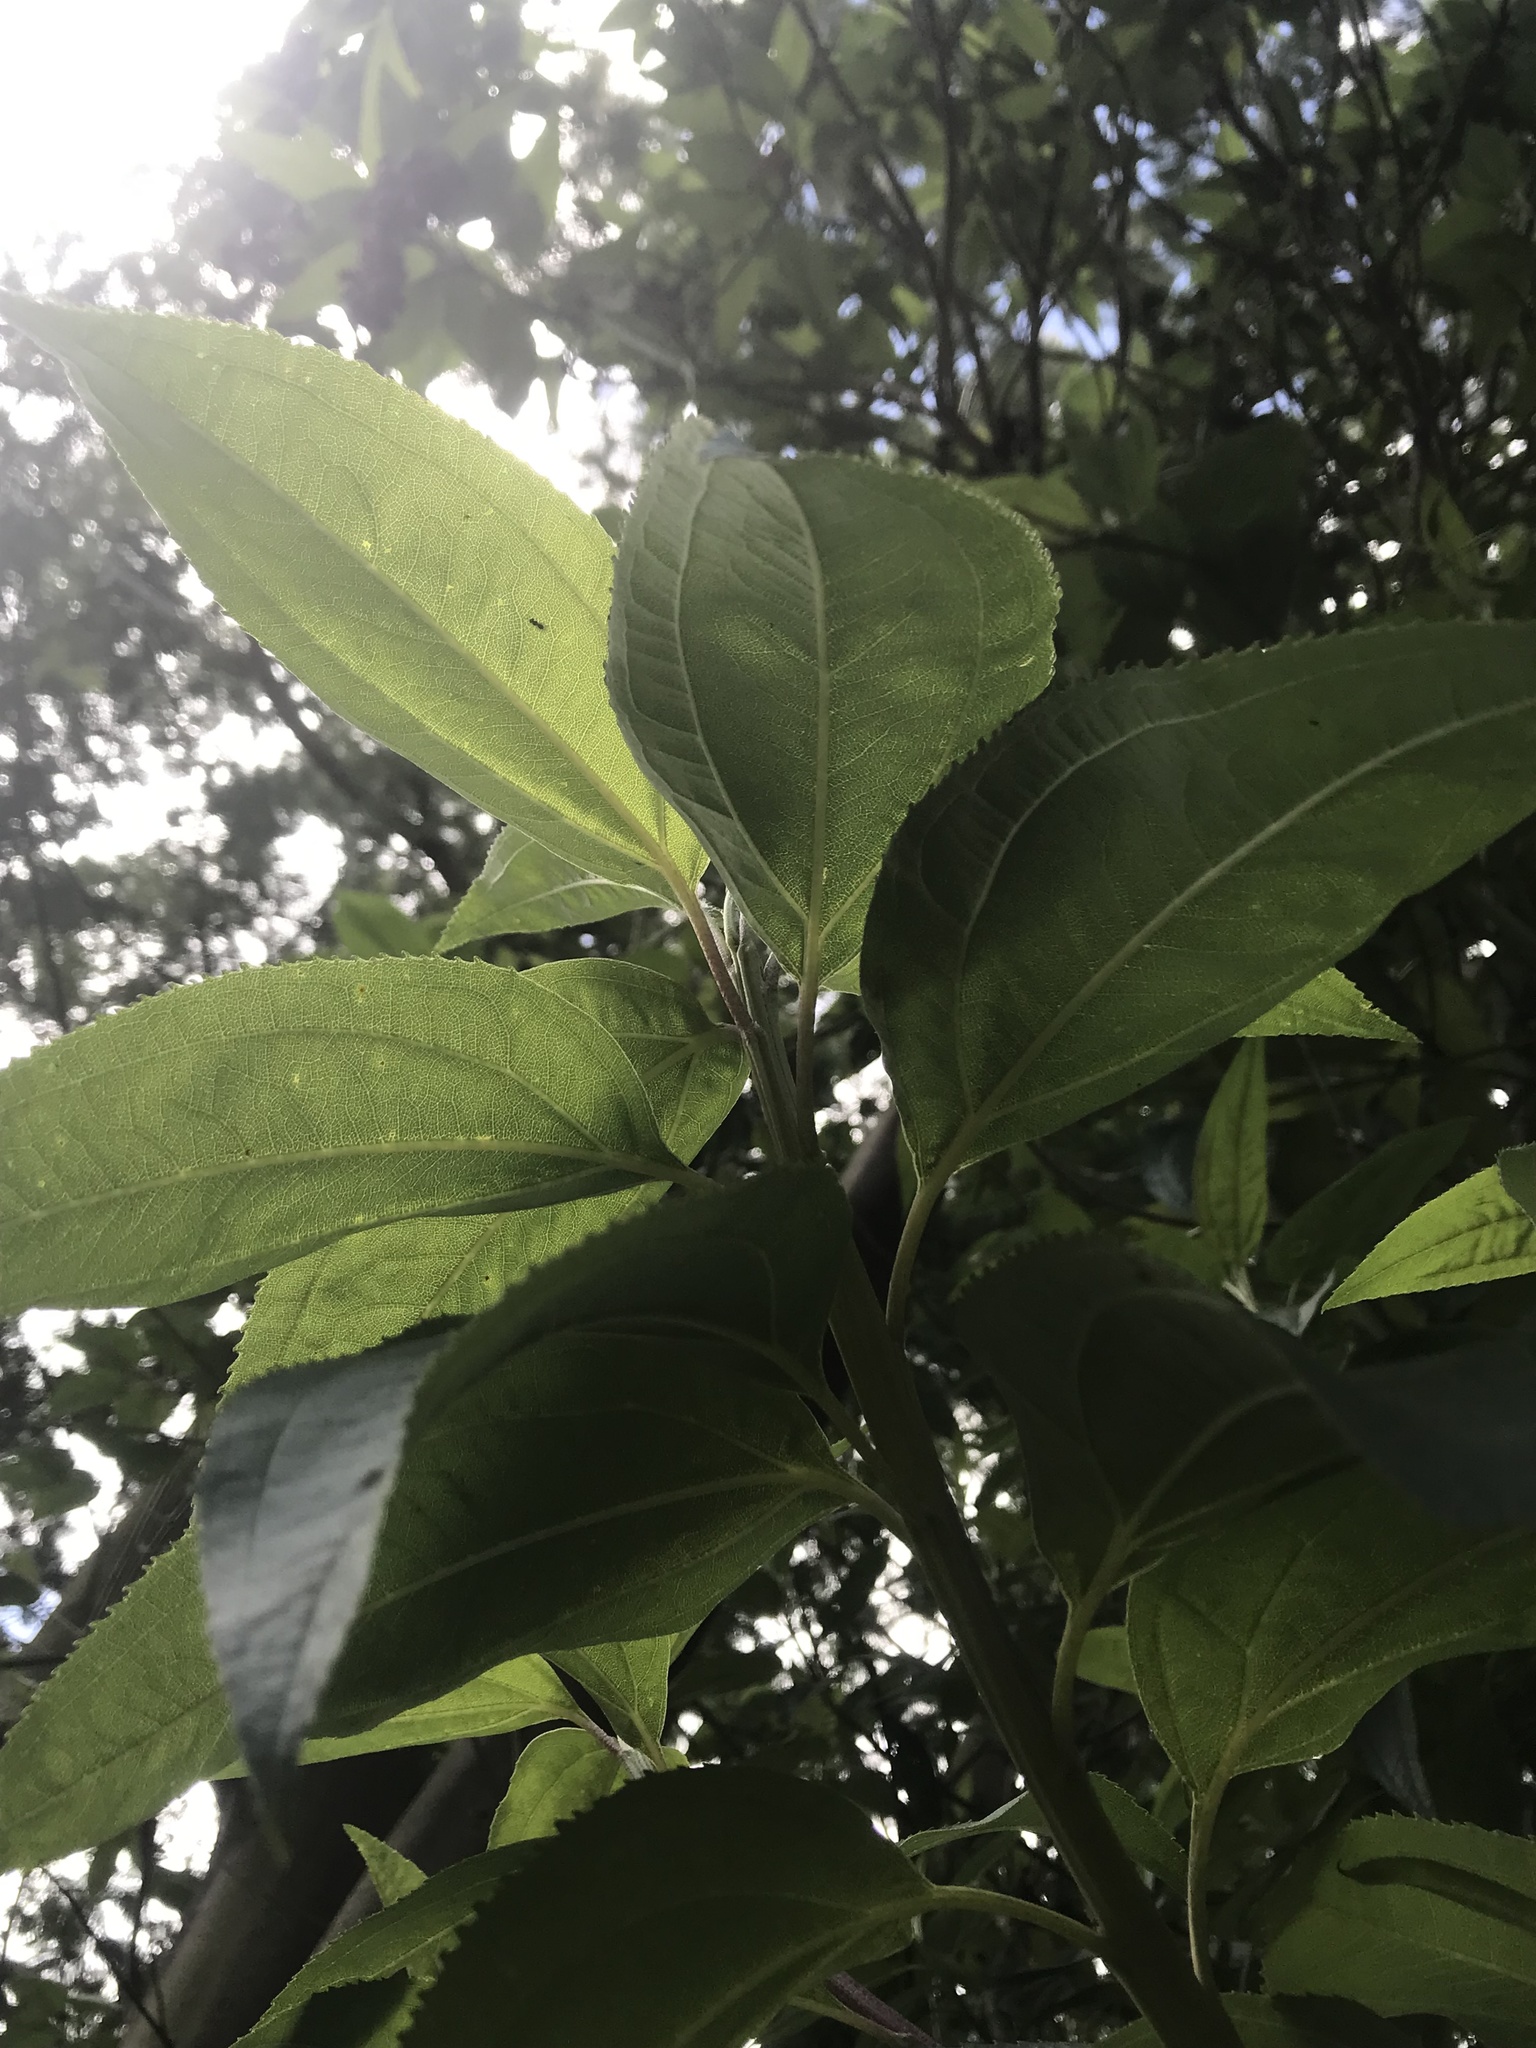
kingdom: Plantae
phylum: Tracheophyta
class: Magnoliopsida
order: Asterales
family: Asteraceae
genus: Baccharis
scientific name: Baccharis latifolia
